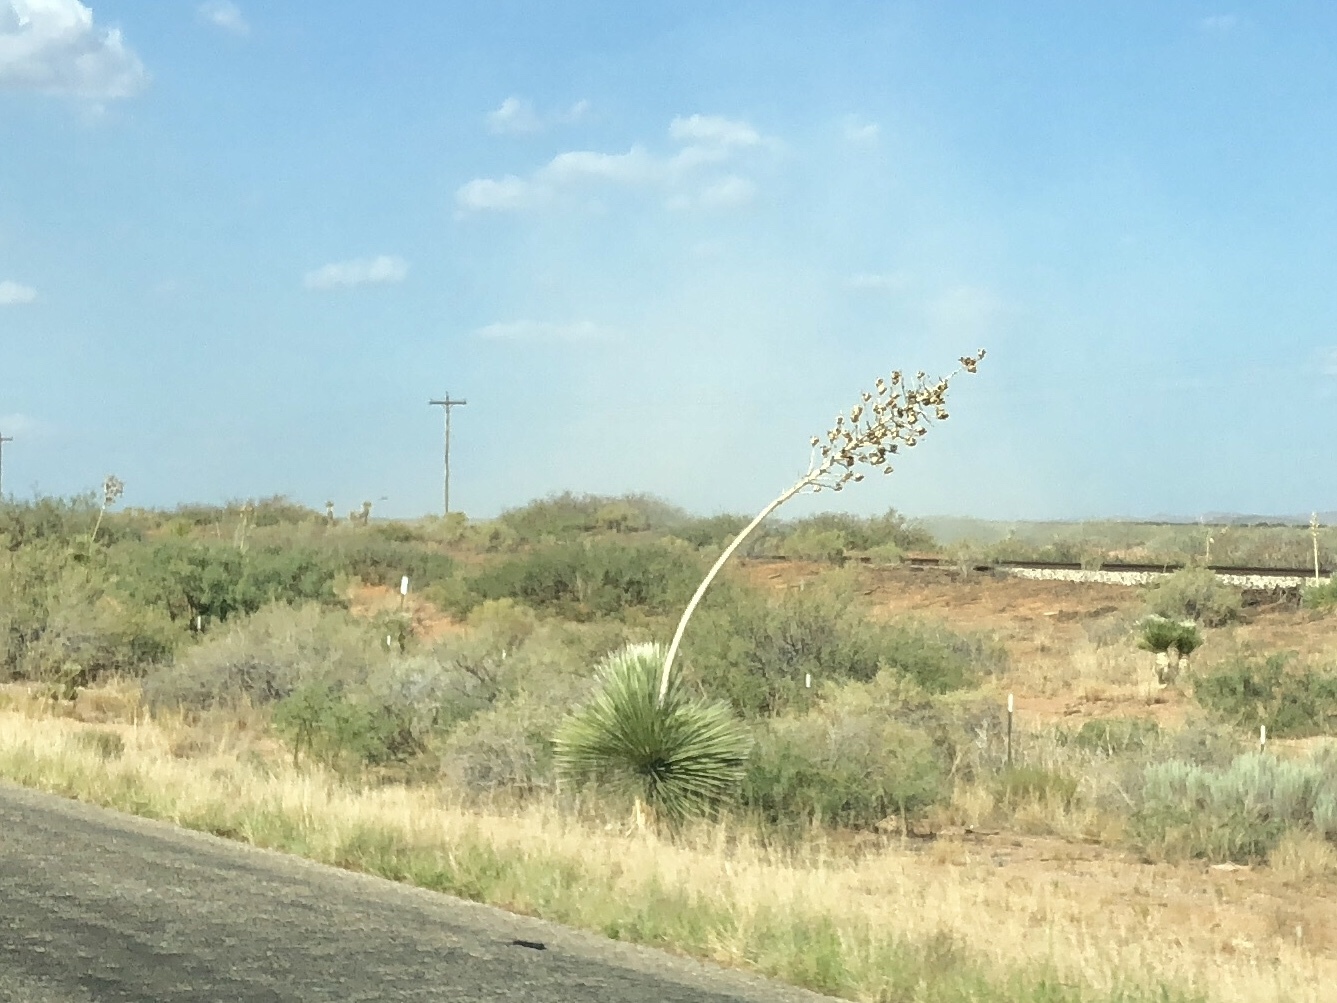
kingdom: Plantae
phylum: Tracheophyta
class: Liliopsida
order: Asparagales
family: Asparagaceae
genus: Yucca
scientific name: Yucca elata
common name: Palmella
